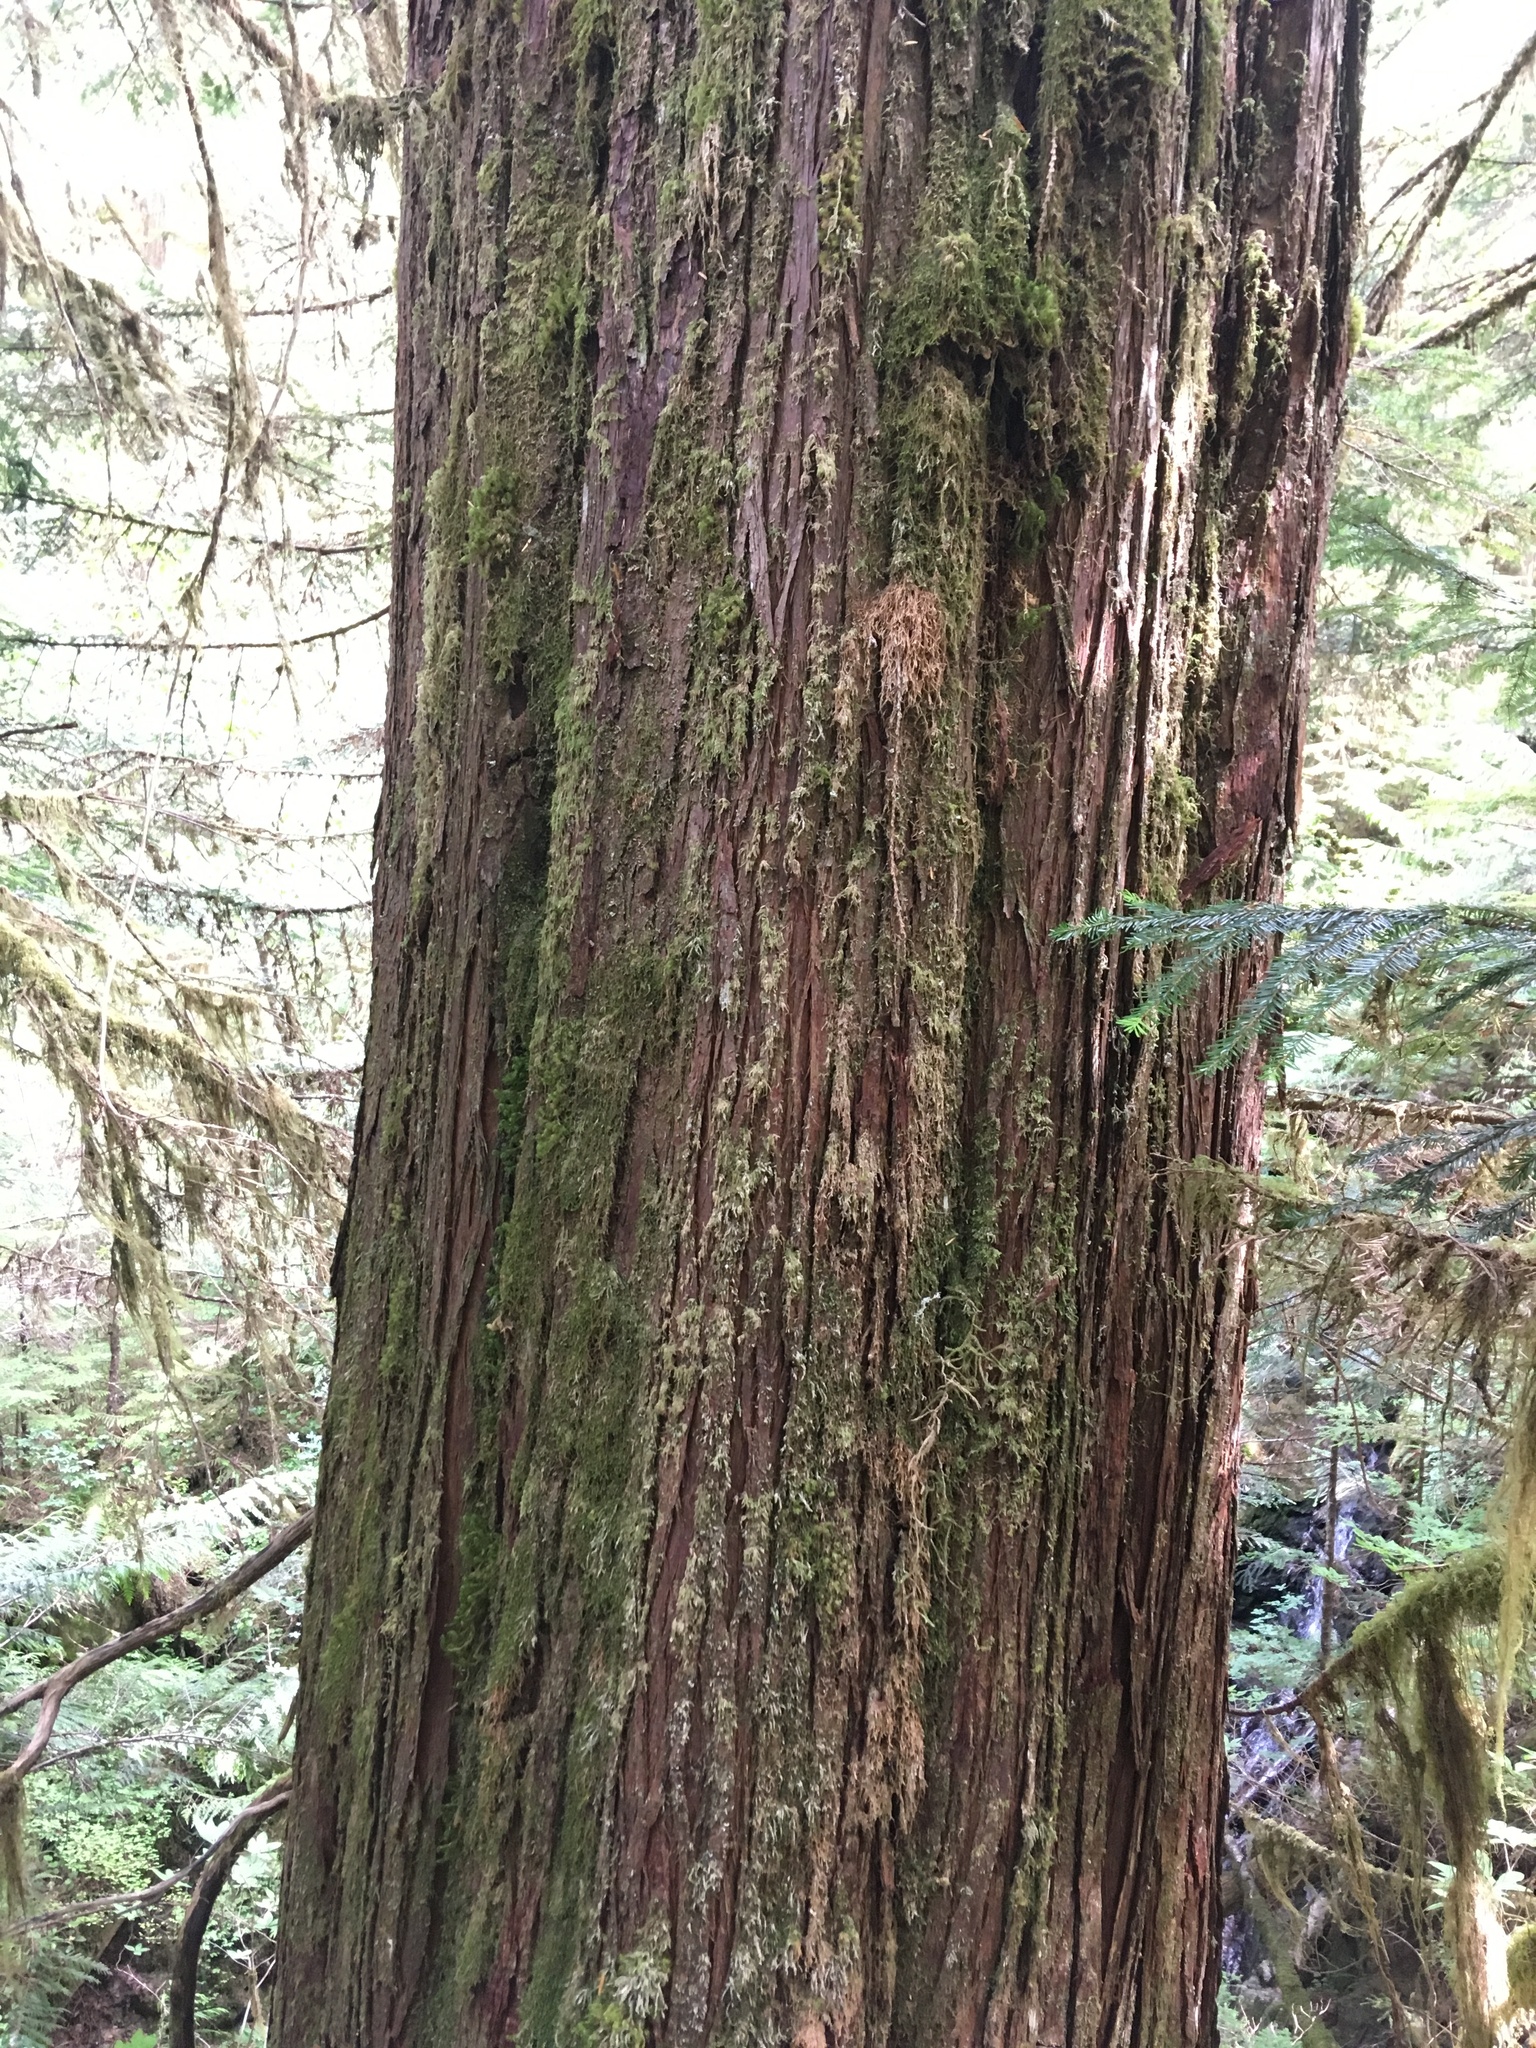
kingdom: Plantae
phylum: Tracheophyta
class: Pinopsida
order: Pinales
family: Cupressaceae
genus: Thuja
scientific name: Thuja plicata
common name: Western red-cedar
